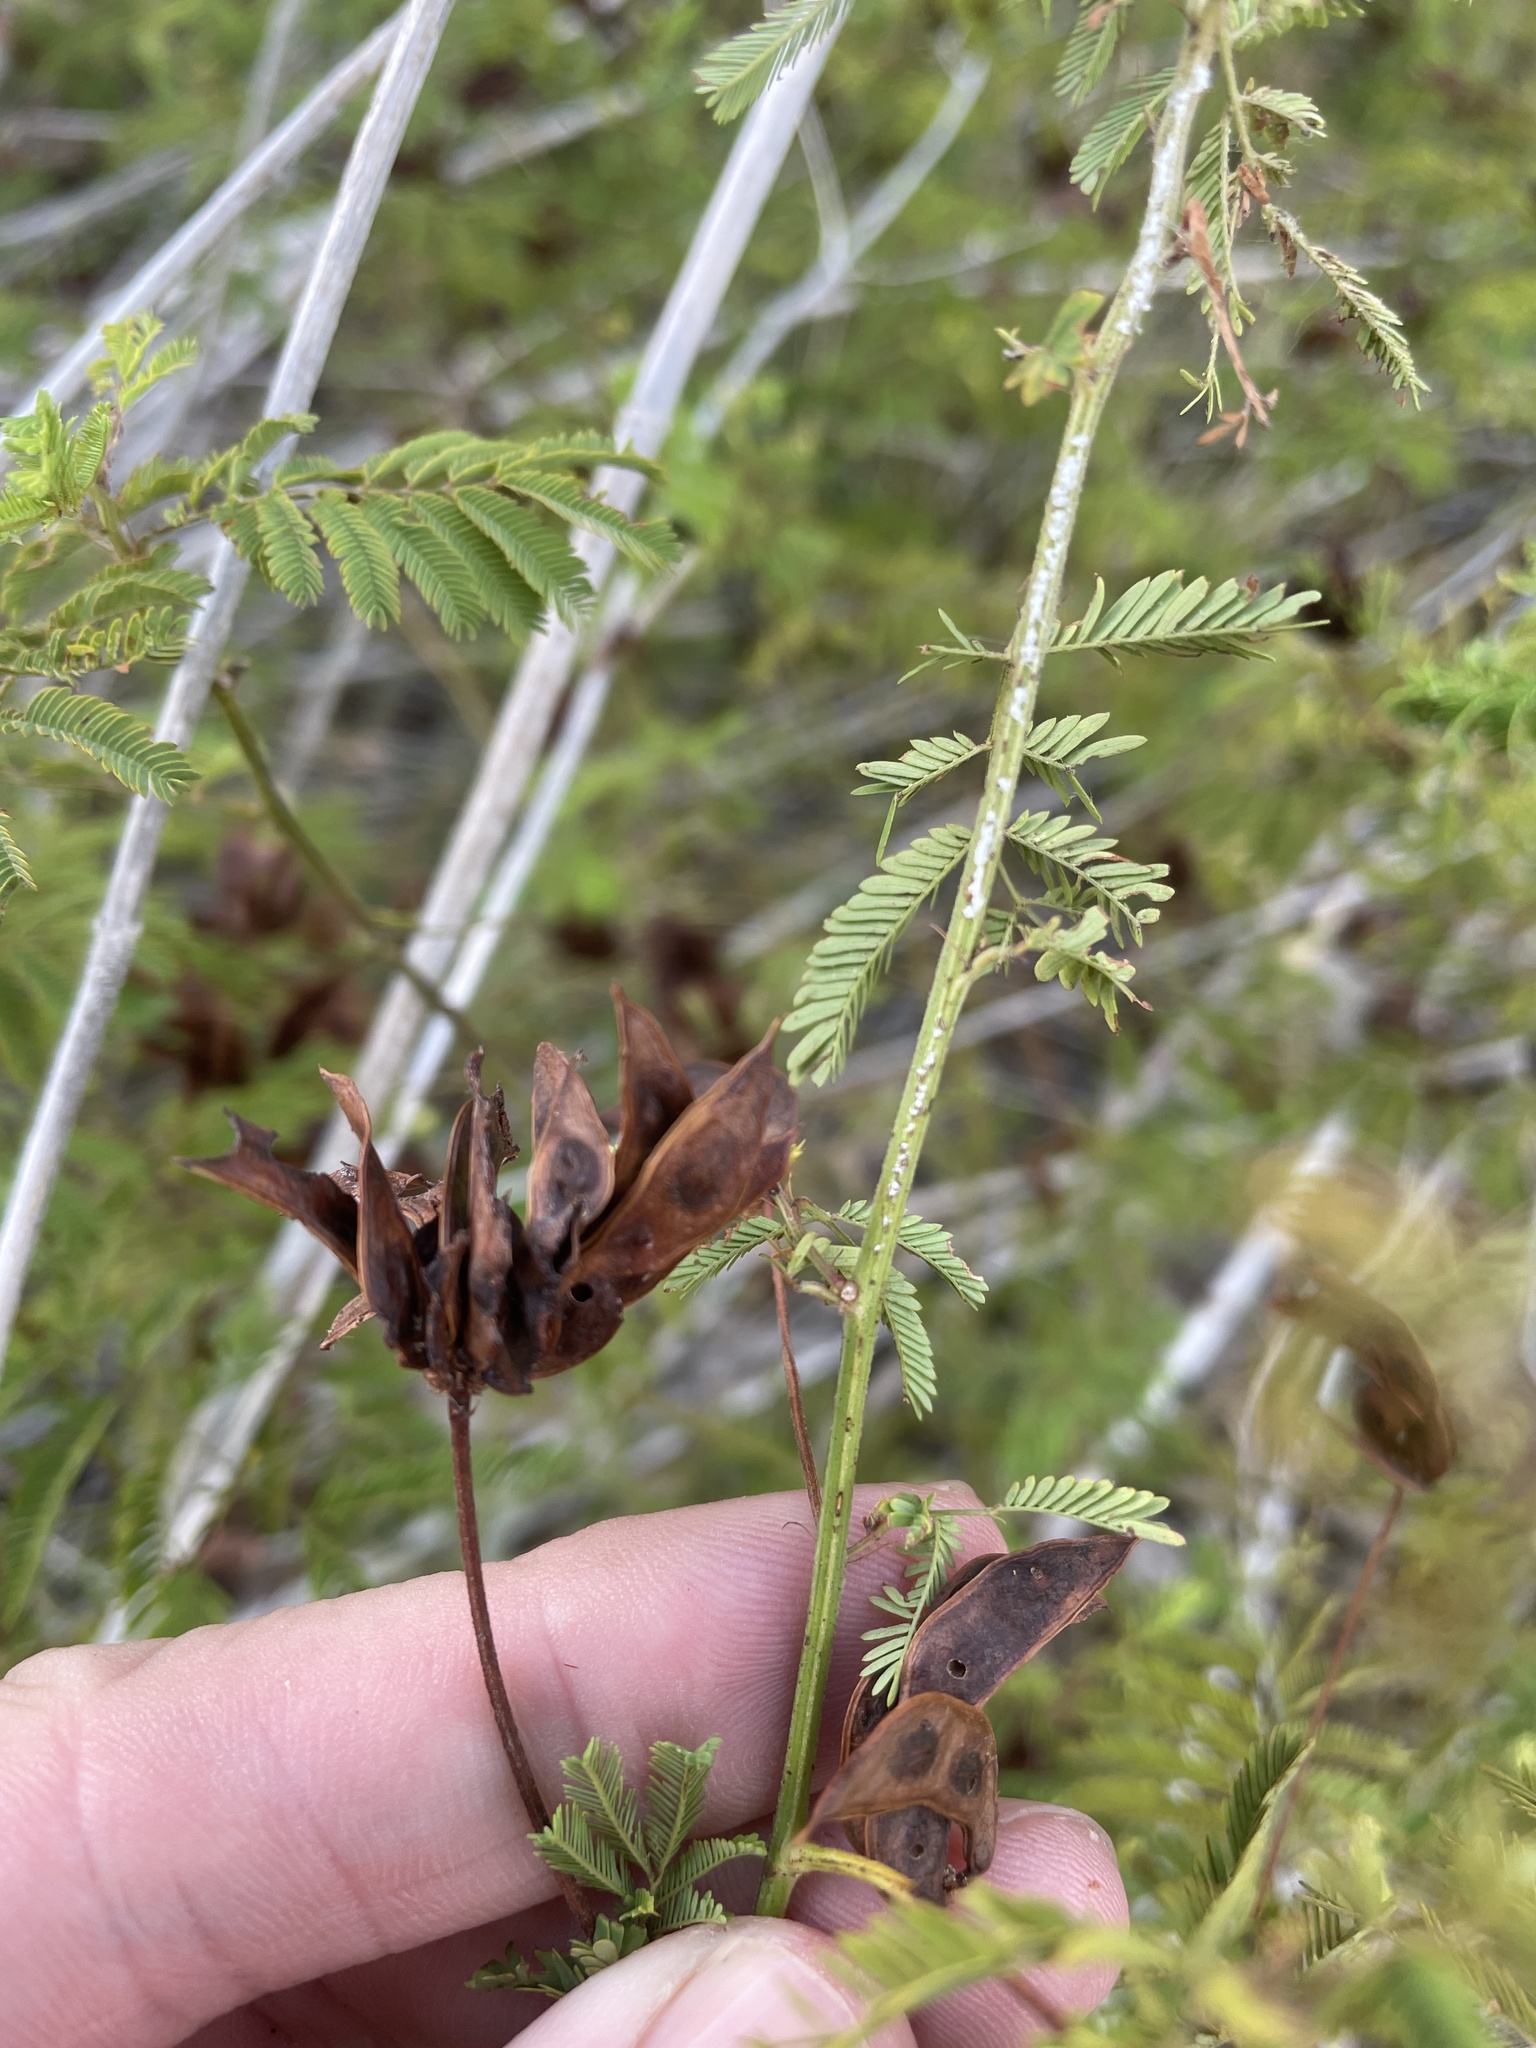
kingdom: Plantae
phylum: Tracheophyta
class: Magnoliopsida
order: Fabales
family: Fabaceae
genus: Desmanthus
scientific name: Desmanthus illinoensis
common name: Illinois bundle-flower
